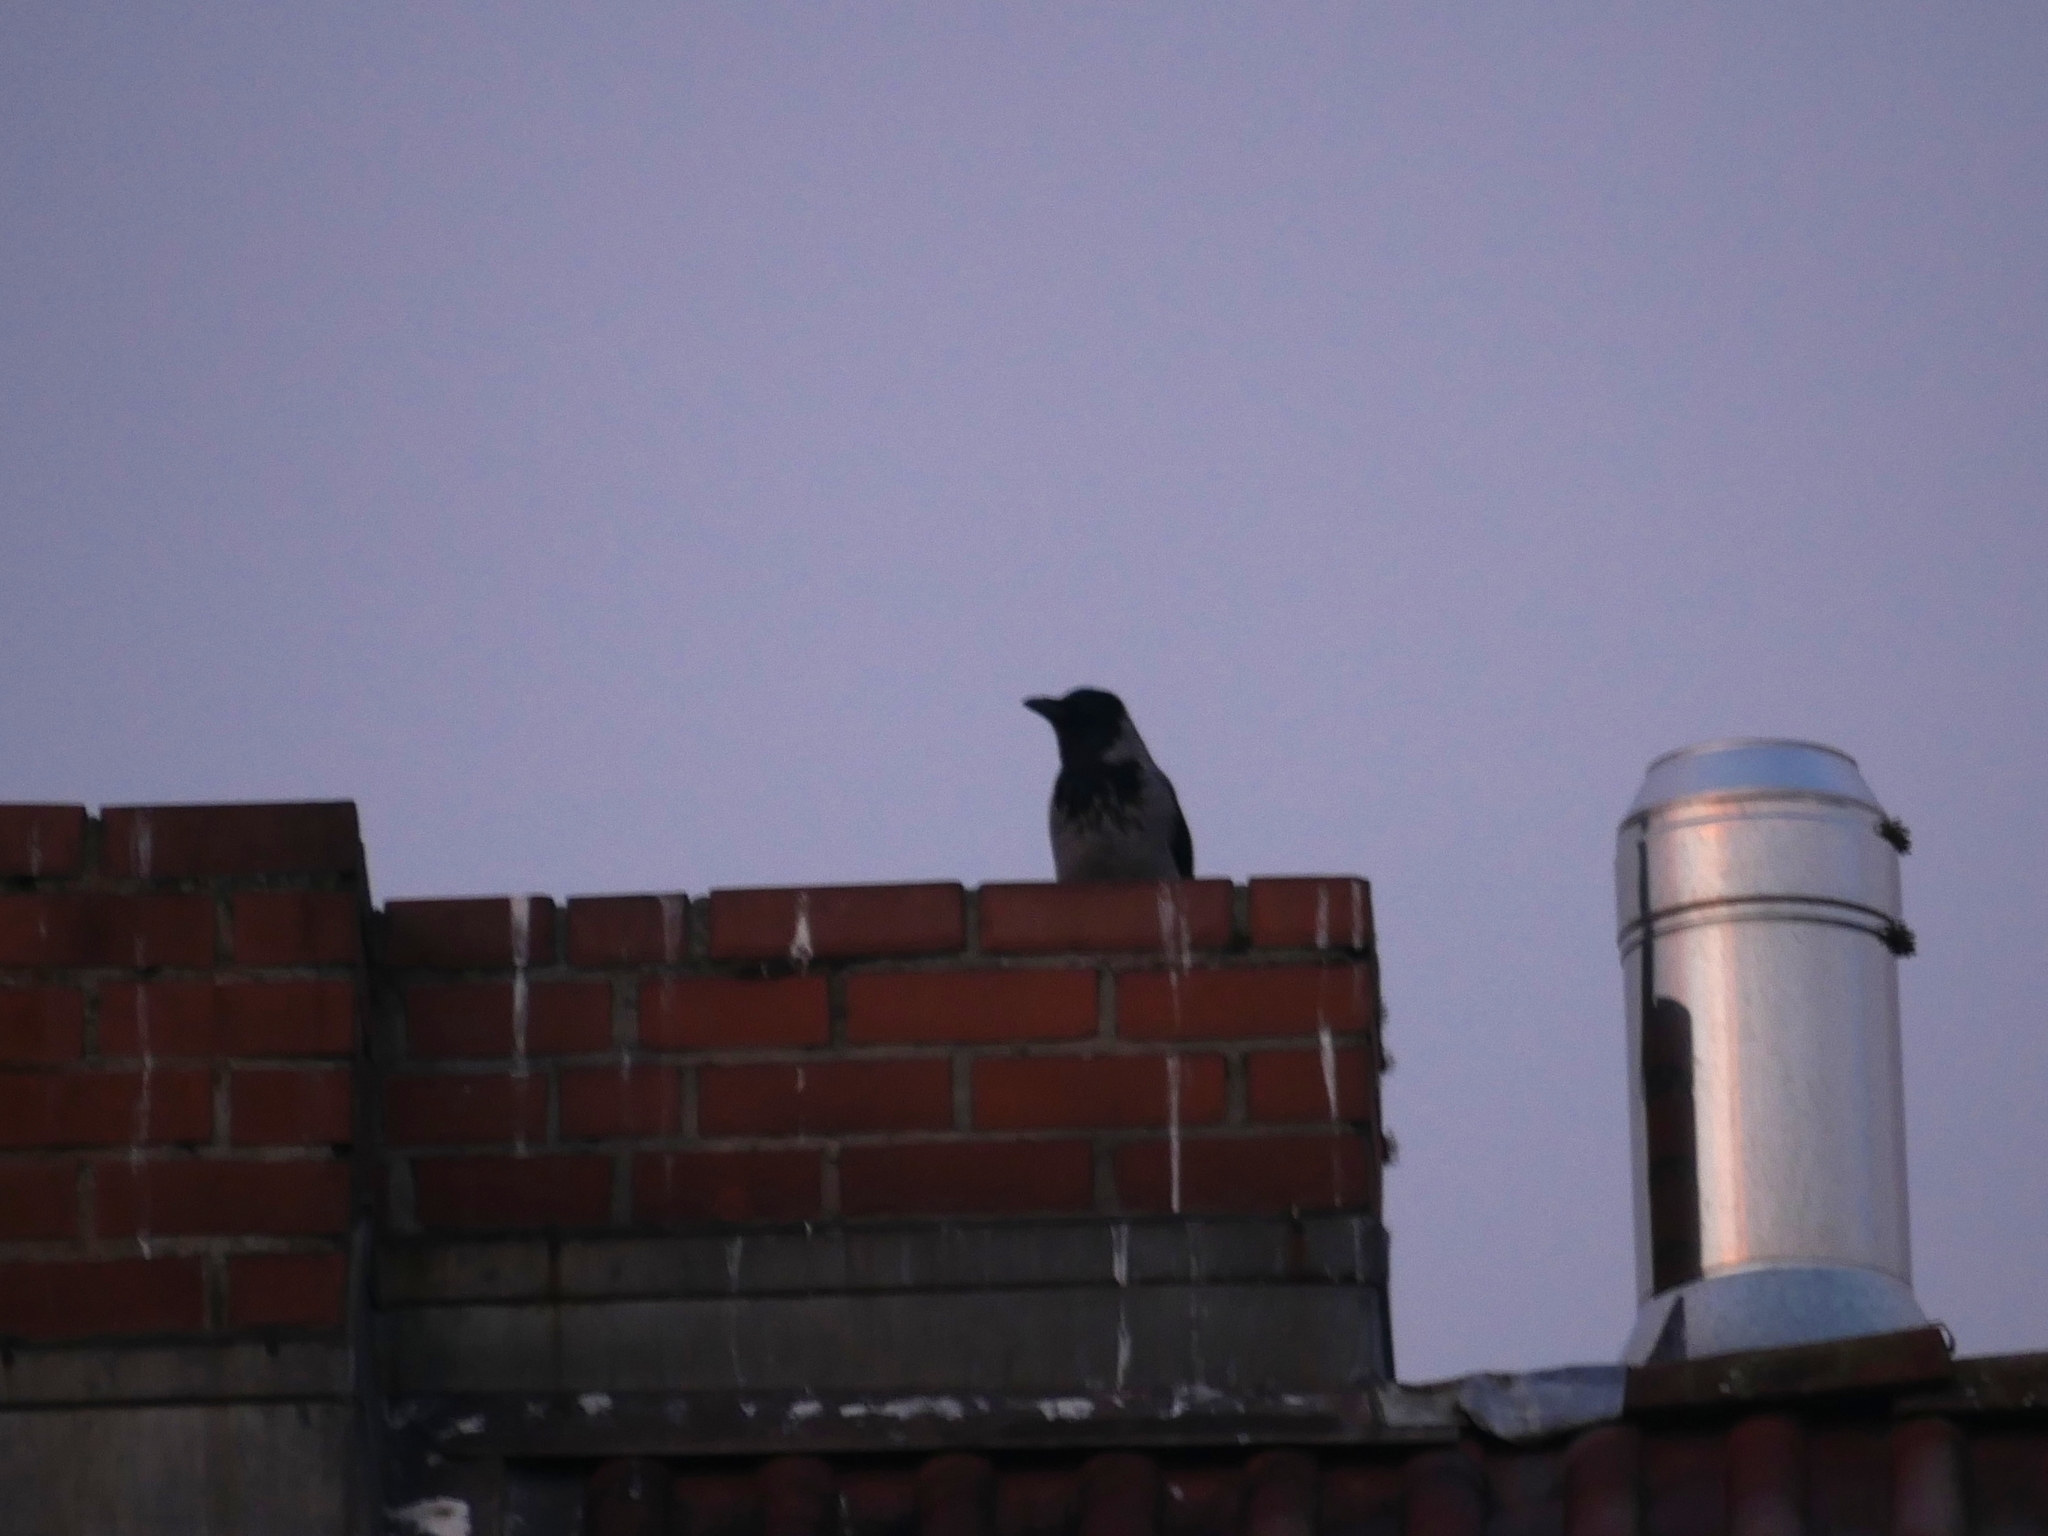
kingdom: Animalia
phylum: Chordata
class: Aves
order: Passeriformes
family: Corvidae
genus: Corvus
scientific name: Corvus cornix
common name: Hooded crow
